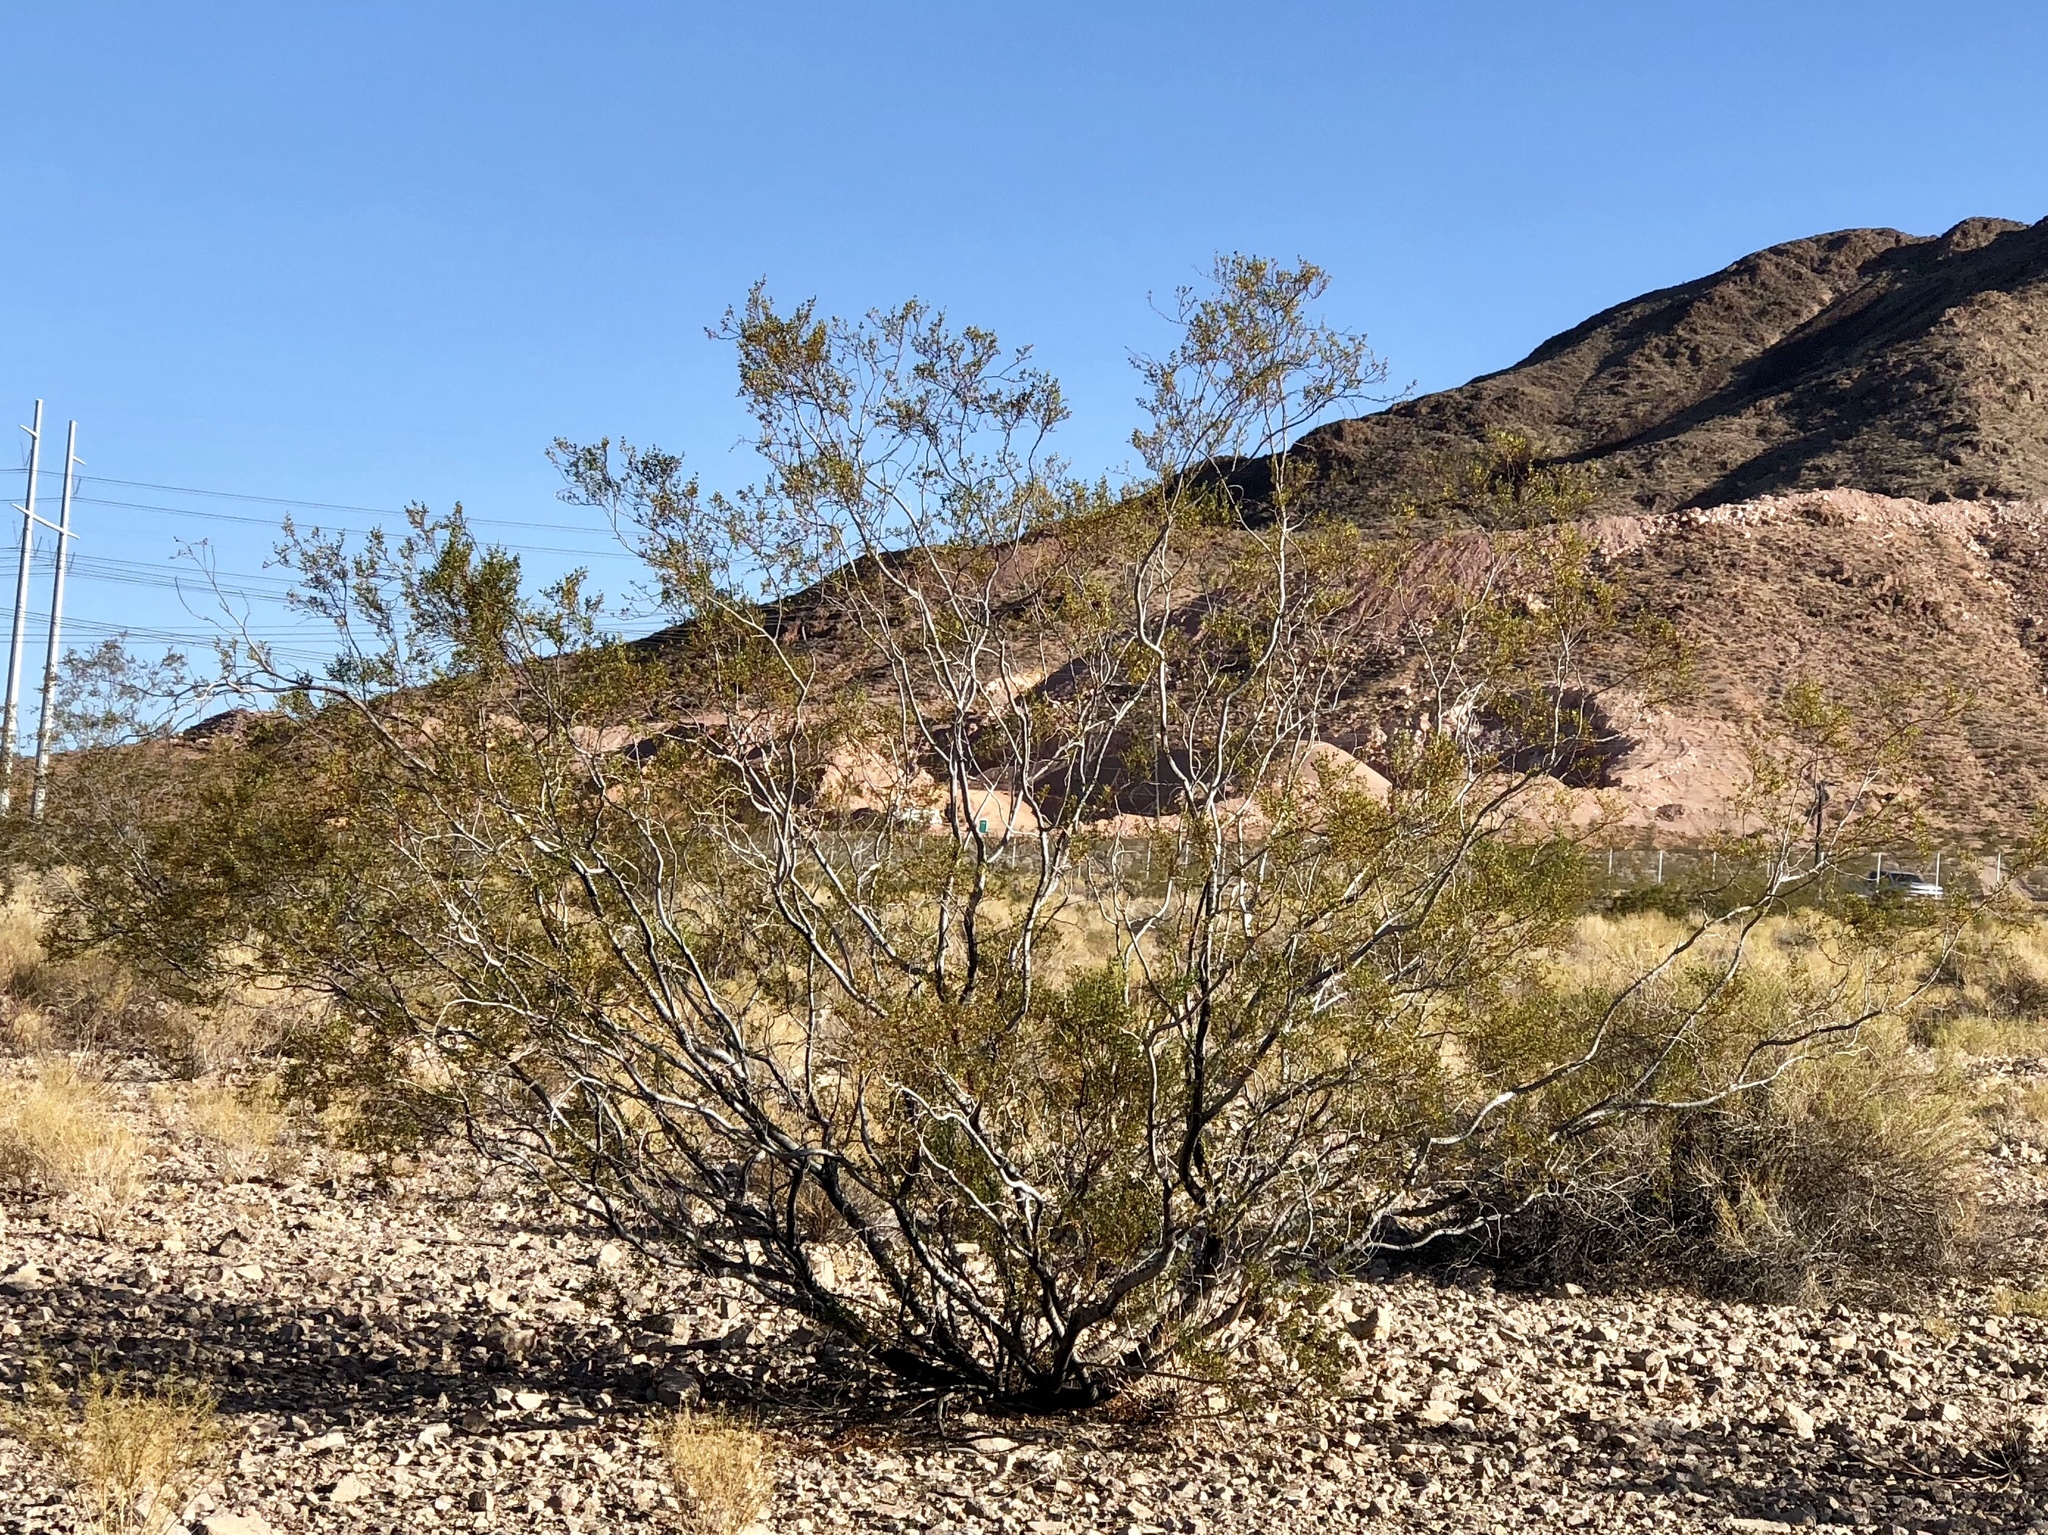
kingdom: Plantae
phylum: Tracheophyta
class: Magnoliopsida
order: Zygophyllales
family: Zygophyllaceae
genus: Larrea
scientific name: Larrea tridentata
